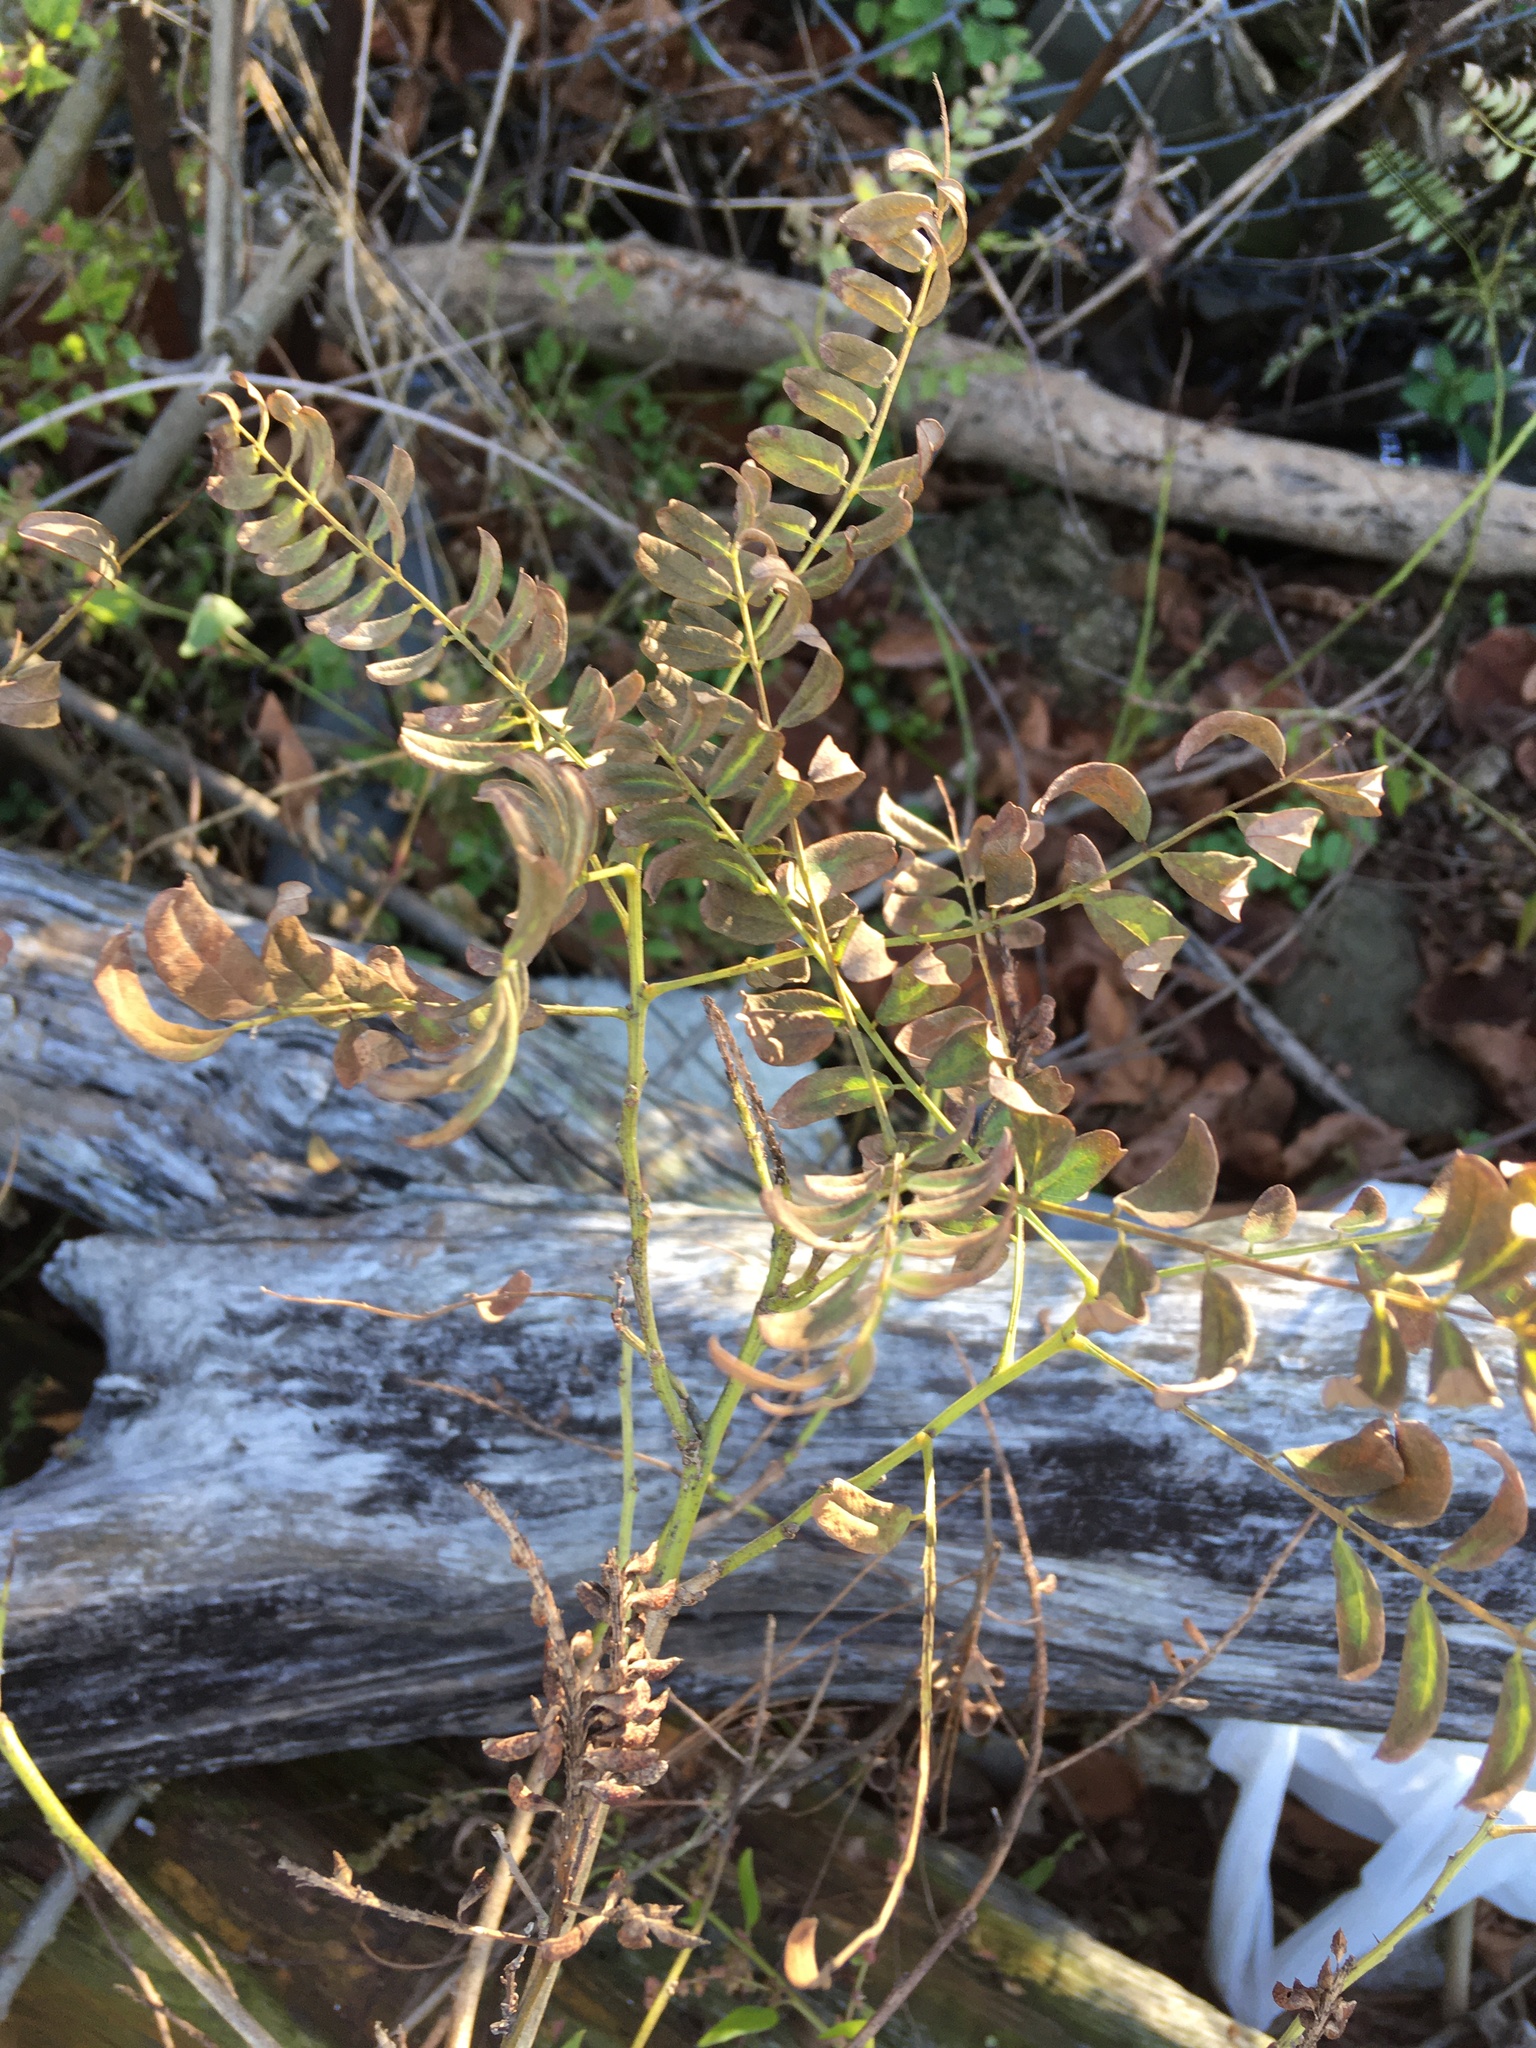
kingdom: Plantae
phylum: Tracheophyta
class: Magnoliopsida
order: Fabales
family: Fabaceae
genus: Amorpha
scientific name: Amorpha fruticosa
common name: False indigo
